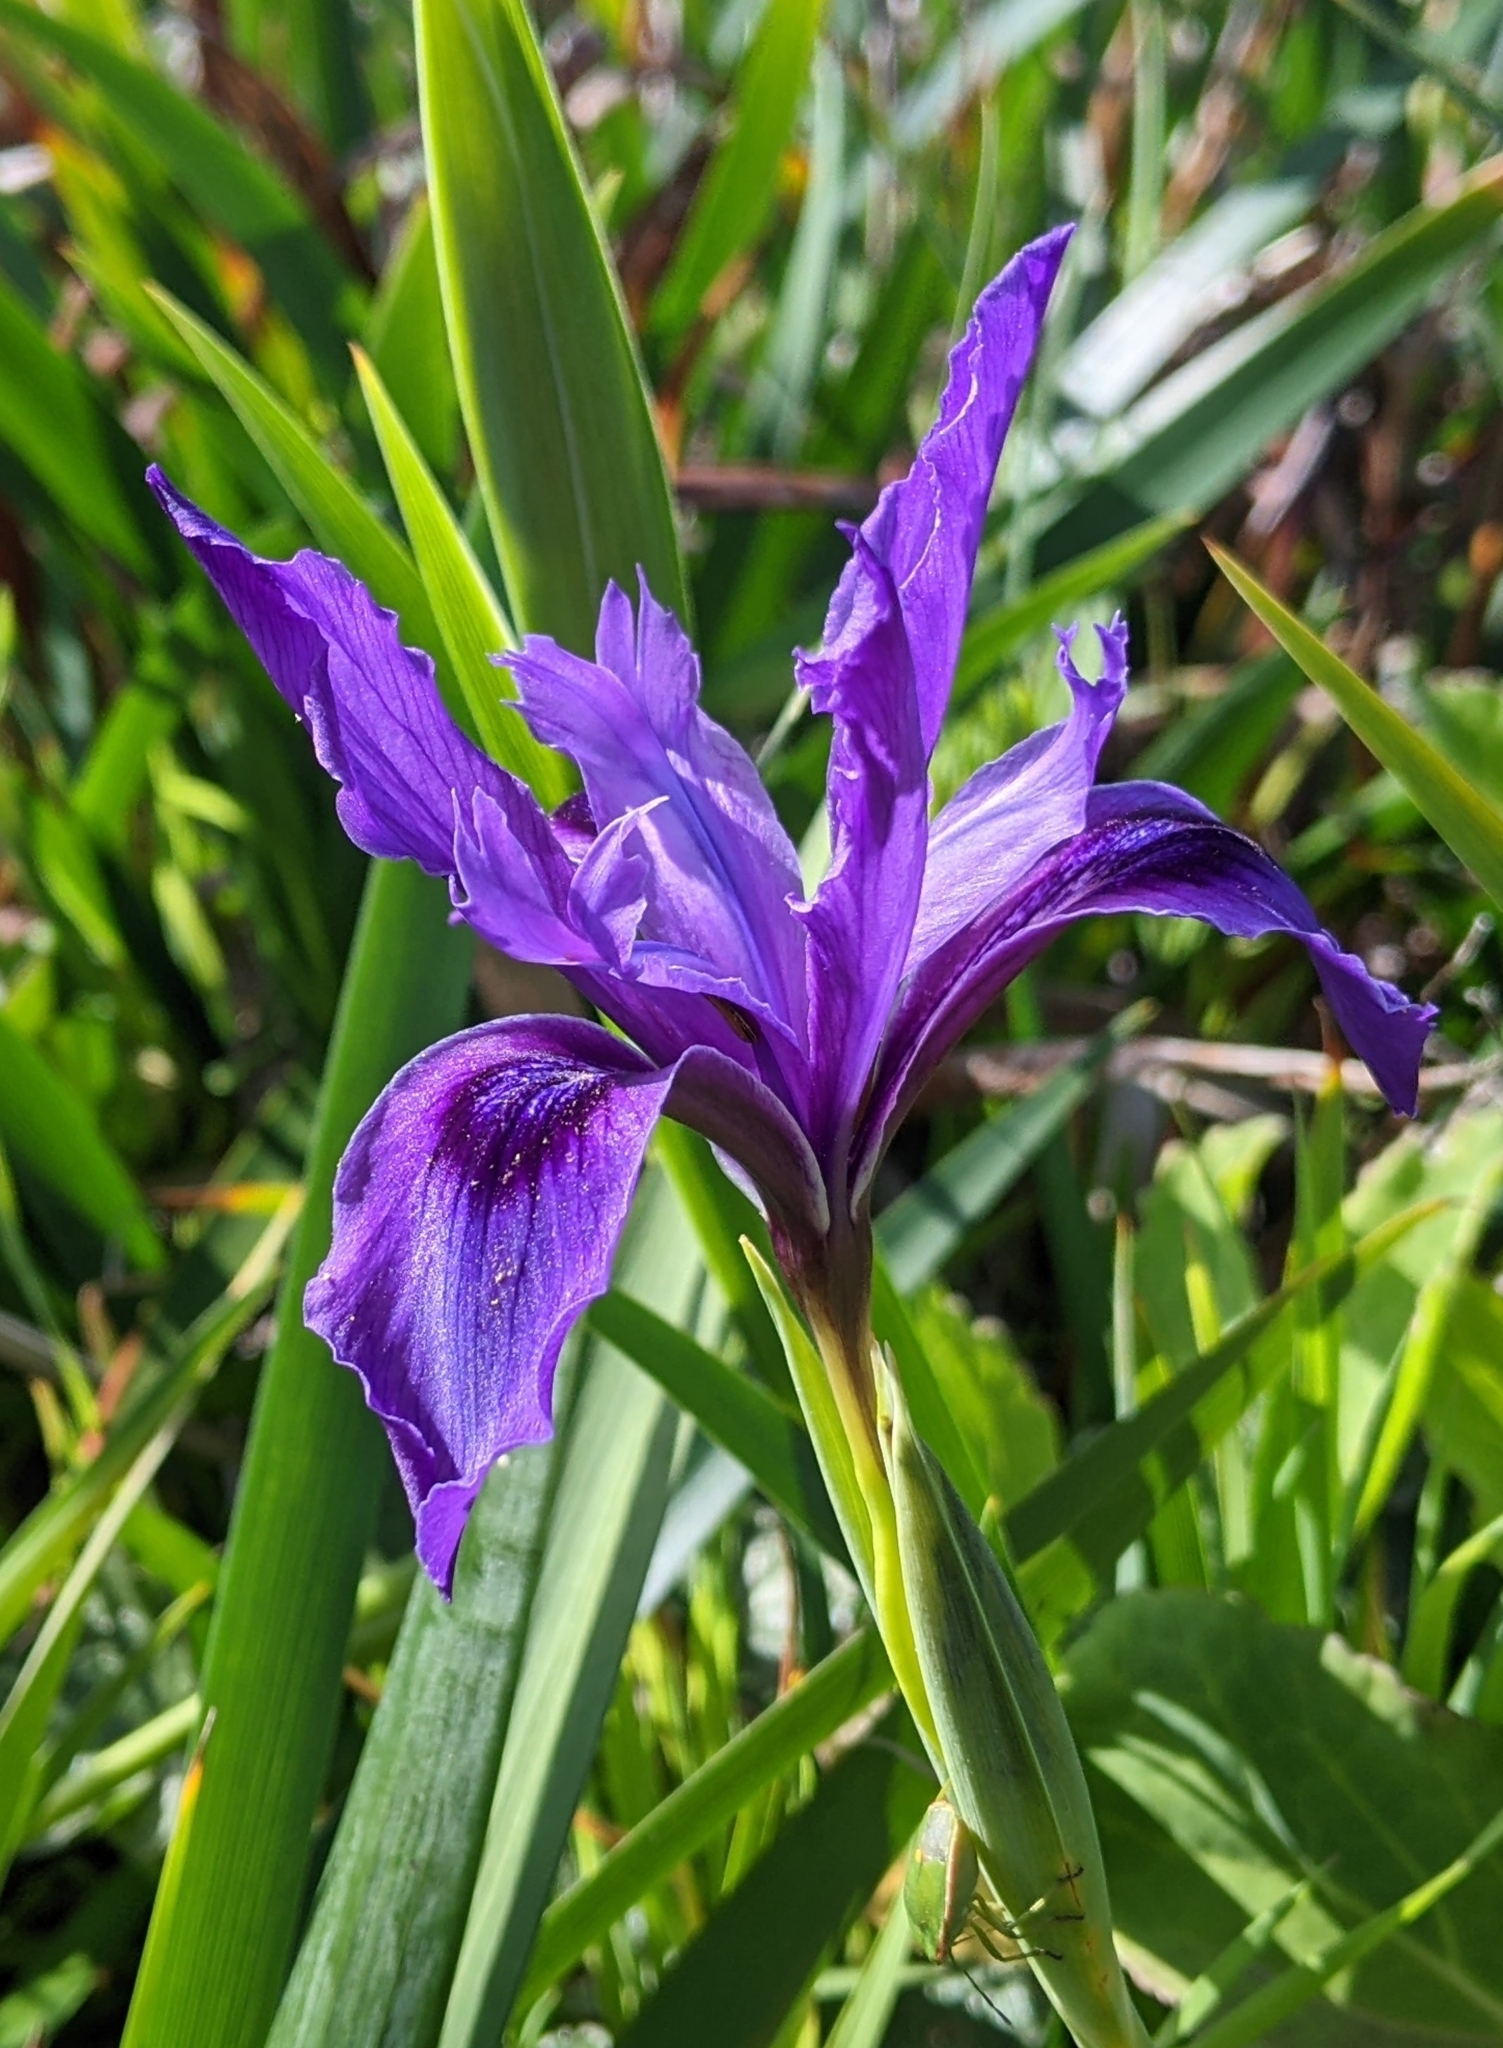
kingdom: Plantae
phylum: Tracheophyta
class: Liliopsida
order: Asparagales
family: Iridaceae
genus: Iris
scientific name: Iris douglasiana
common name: Marin iris
